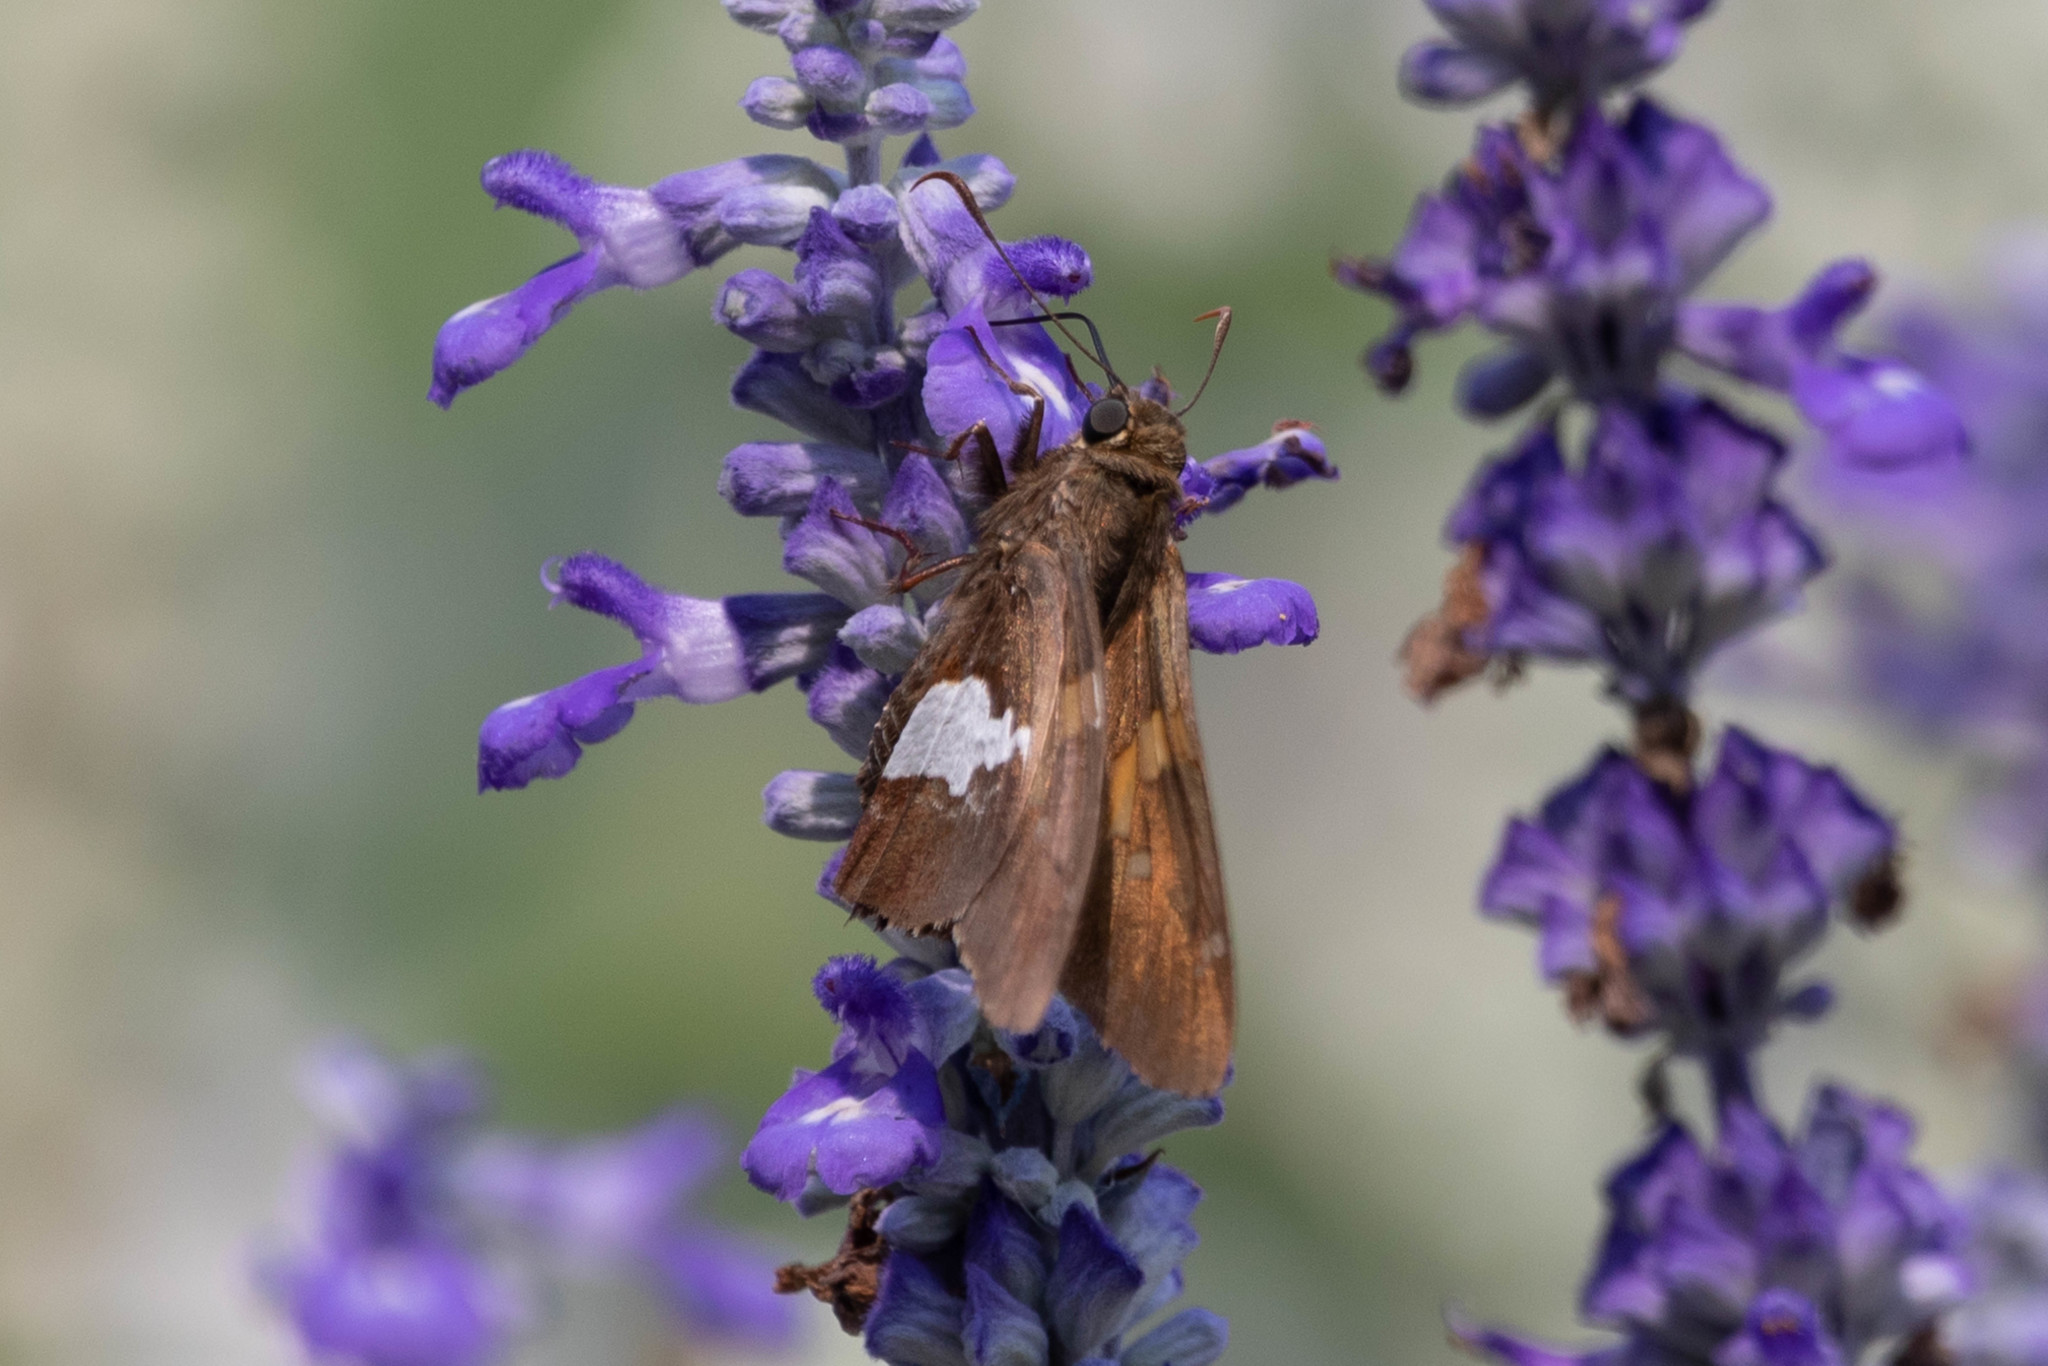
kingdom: Animalia
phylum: Arthropoda
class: Insecta
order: Lepidoptera
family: Hesperiidae
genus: Epargyreus
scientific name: Epargyreus clarus
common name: Silver-spotted skipper
